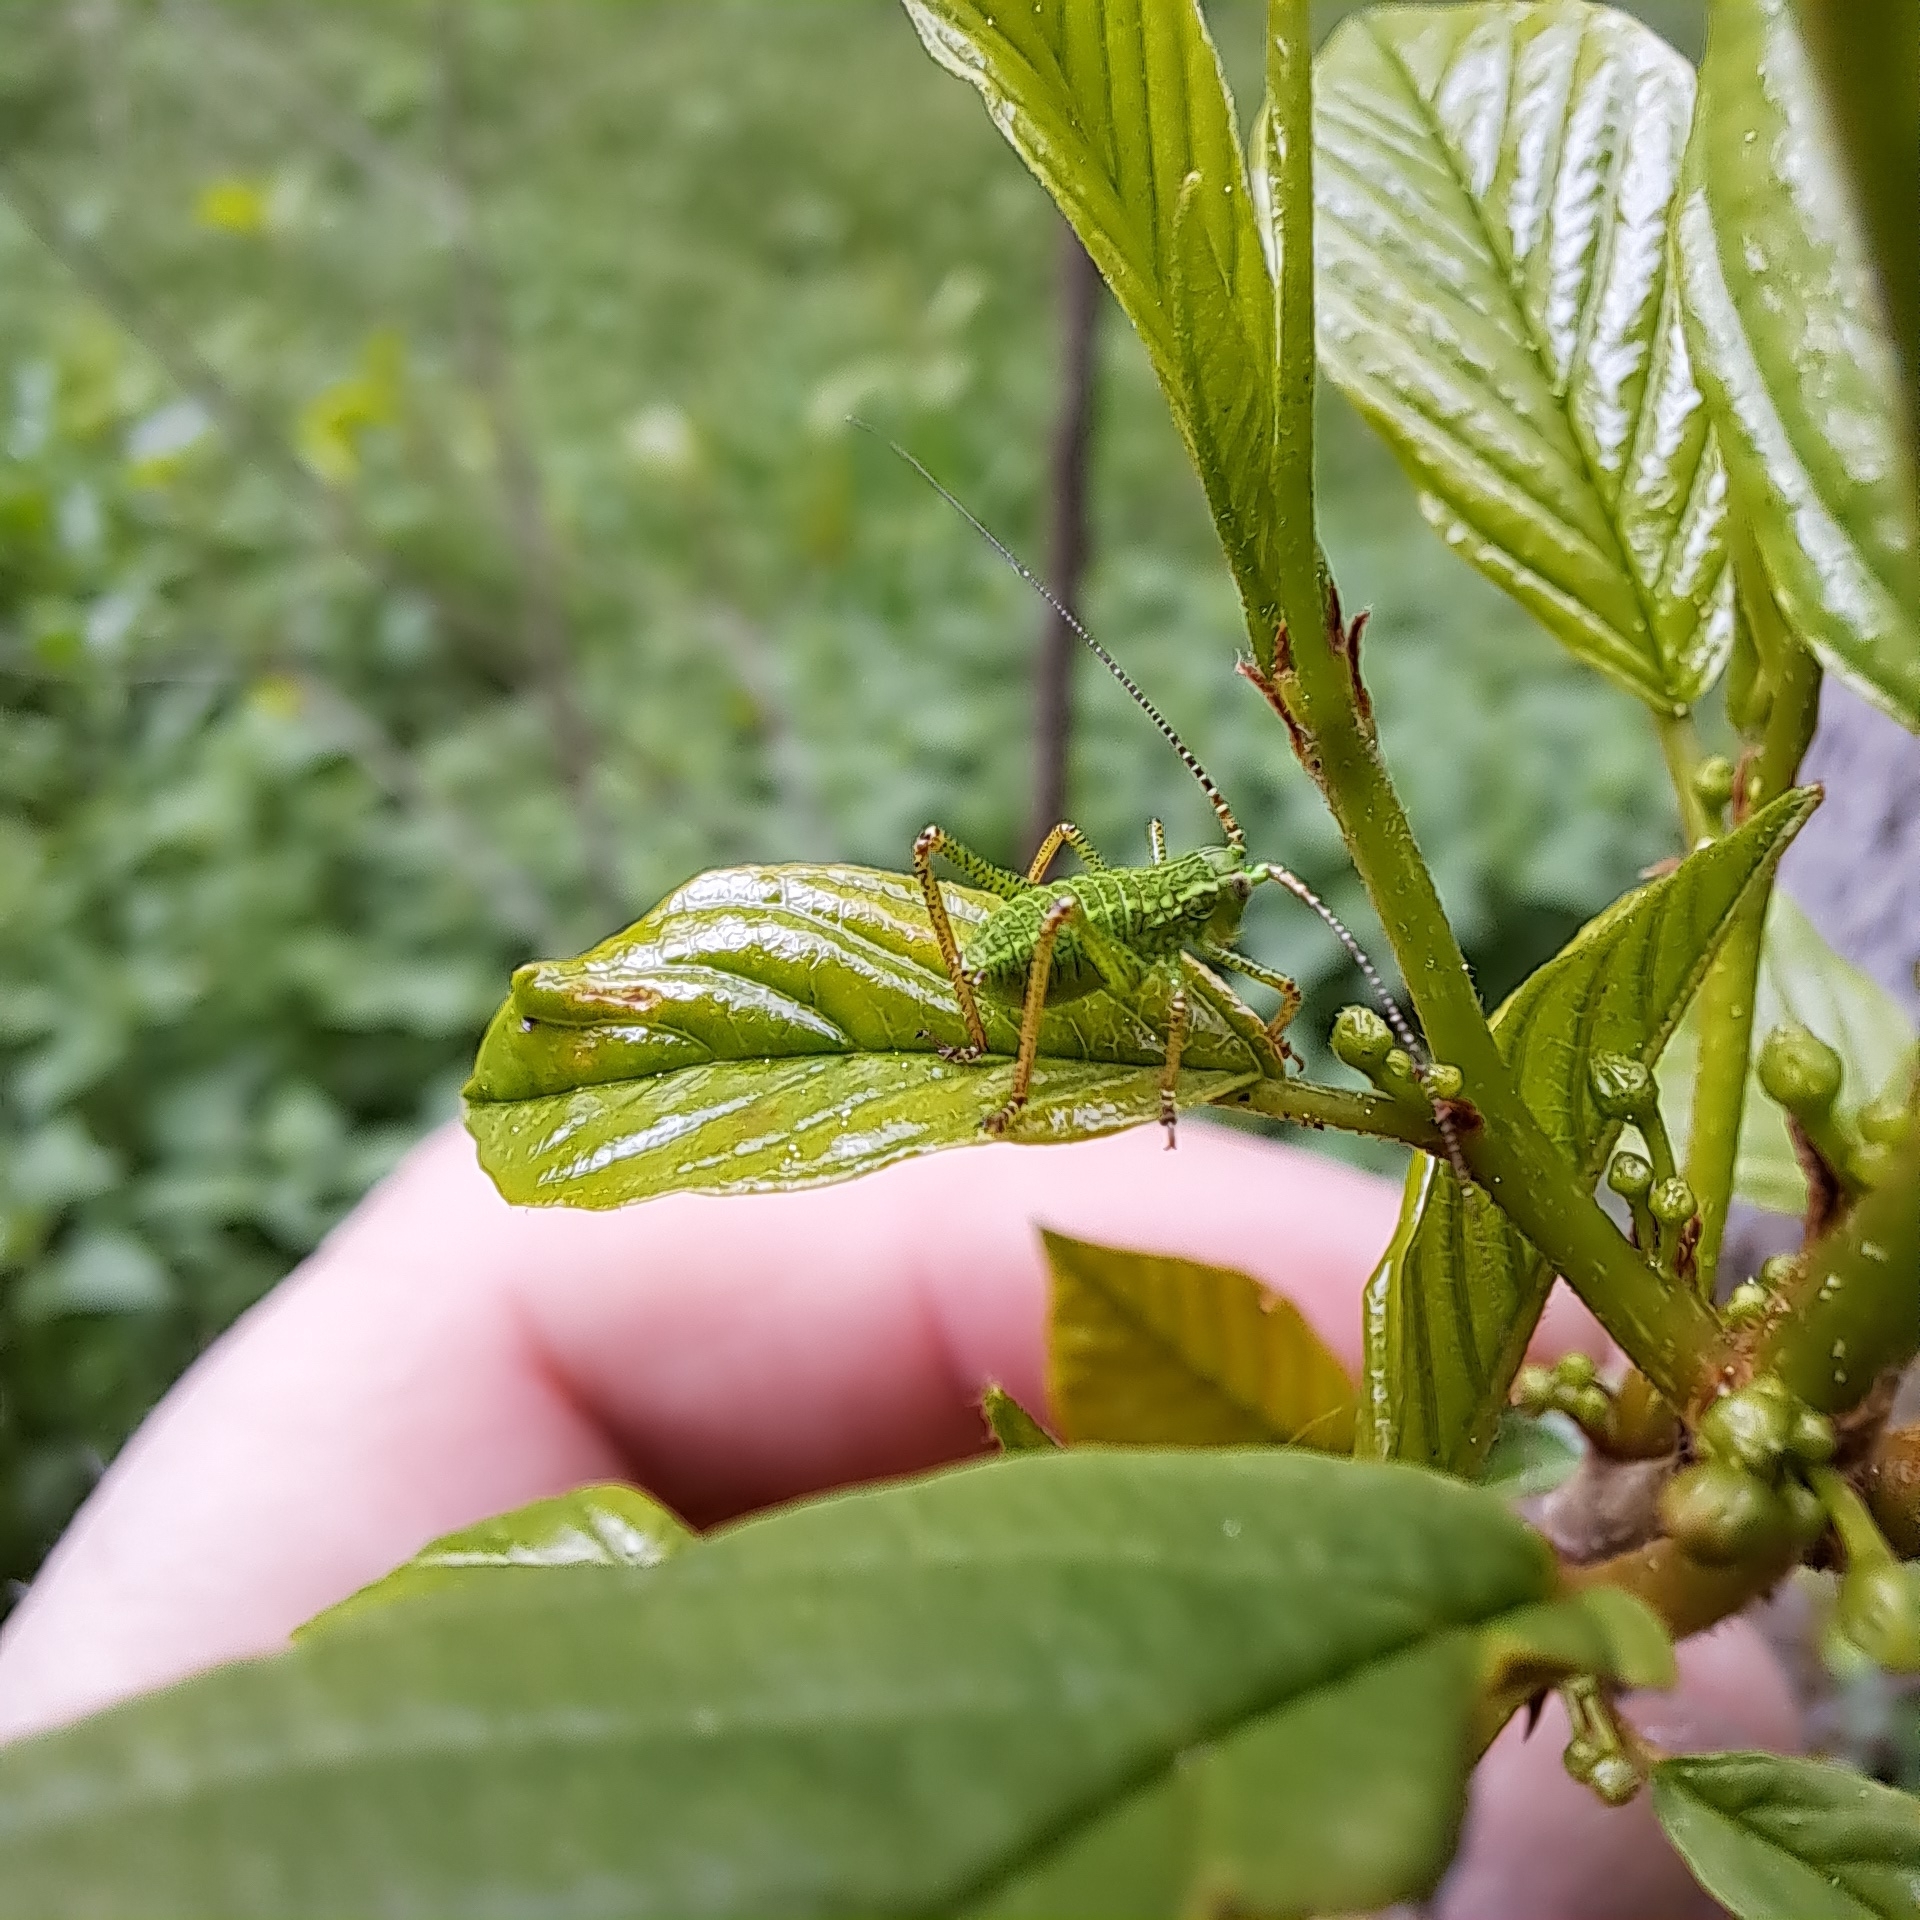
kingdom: Animalia
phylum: Arthropoda
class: Insecta
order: Orthoptera
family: Tettigoniidae
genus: Barbitistes
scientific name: Barbitistes constrictus
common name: Eastern saw-tailed bush cricket
